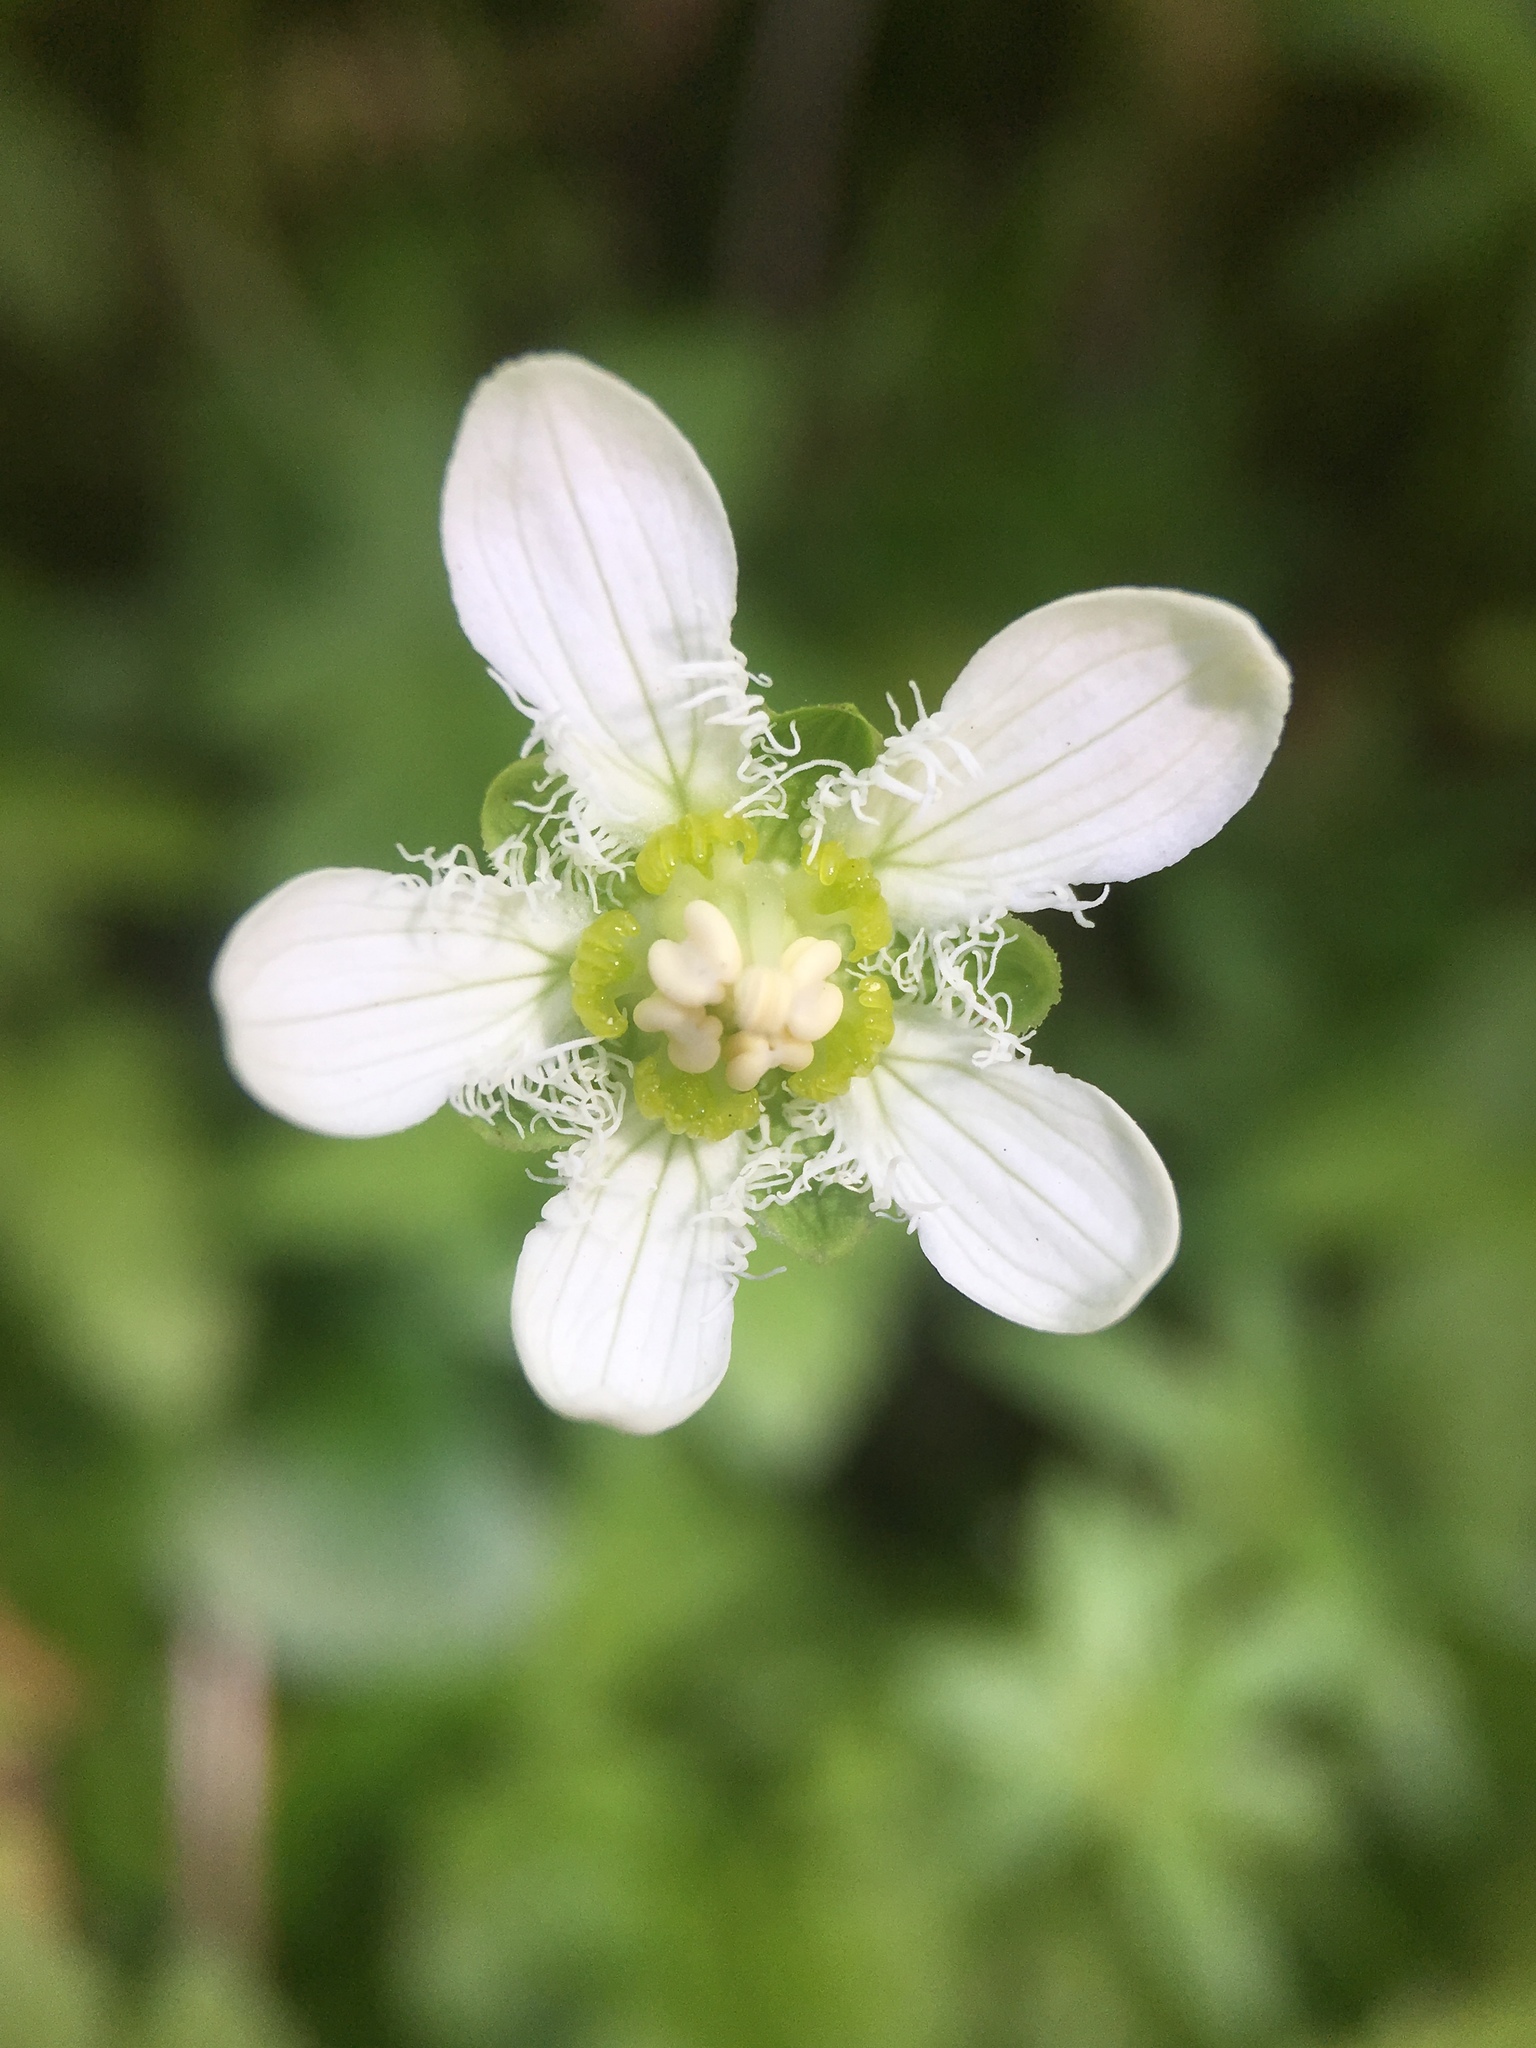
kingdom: Plantae
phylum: Tracheophyta
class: Magnoliopsida
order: Celastrales
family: Parnassiaceae
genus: Parnassia
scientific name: Parnassia fimbriata
